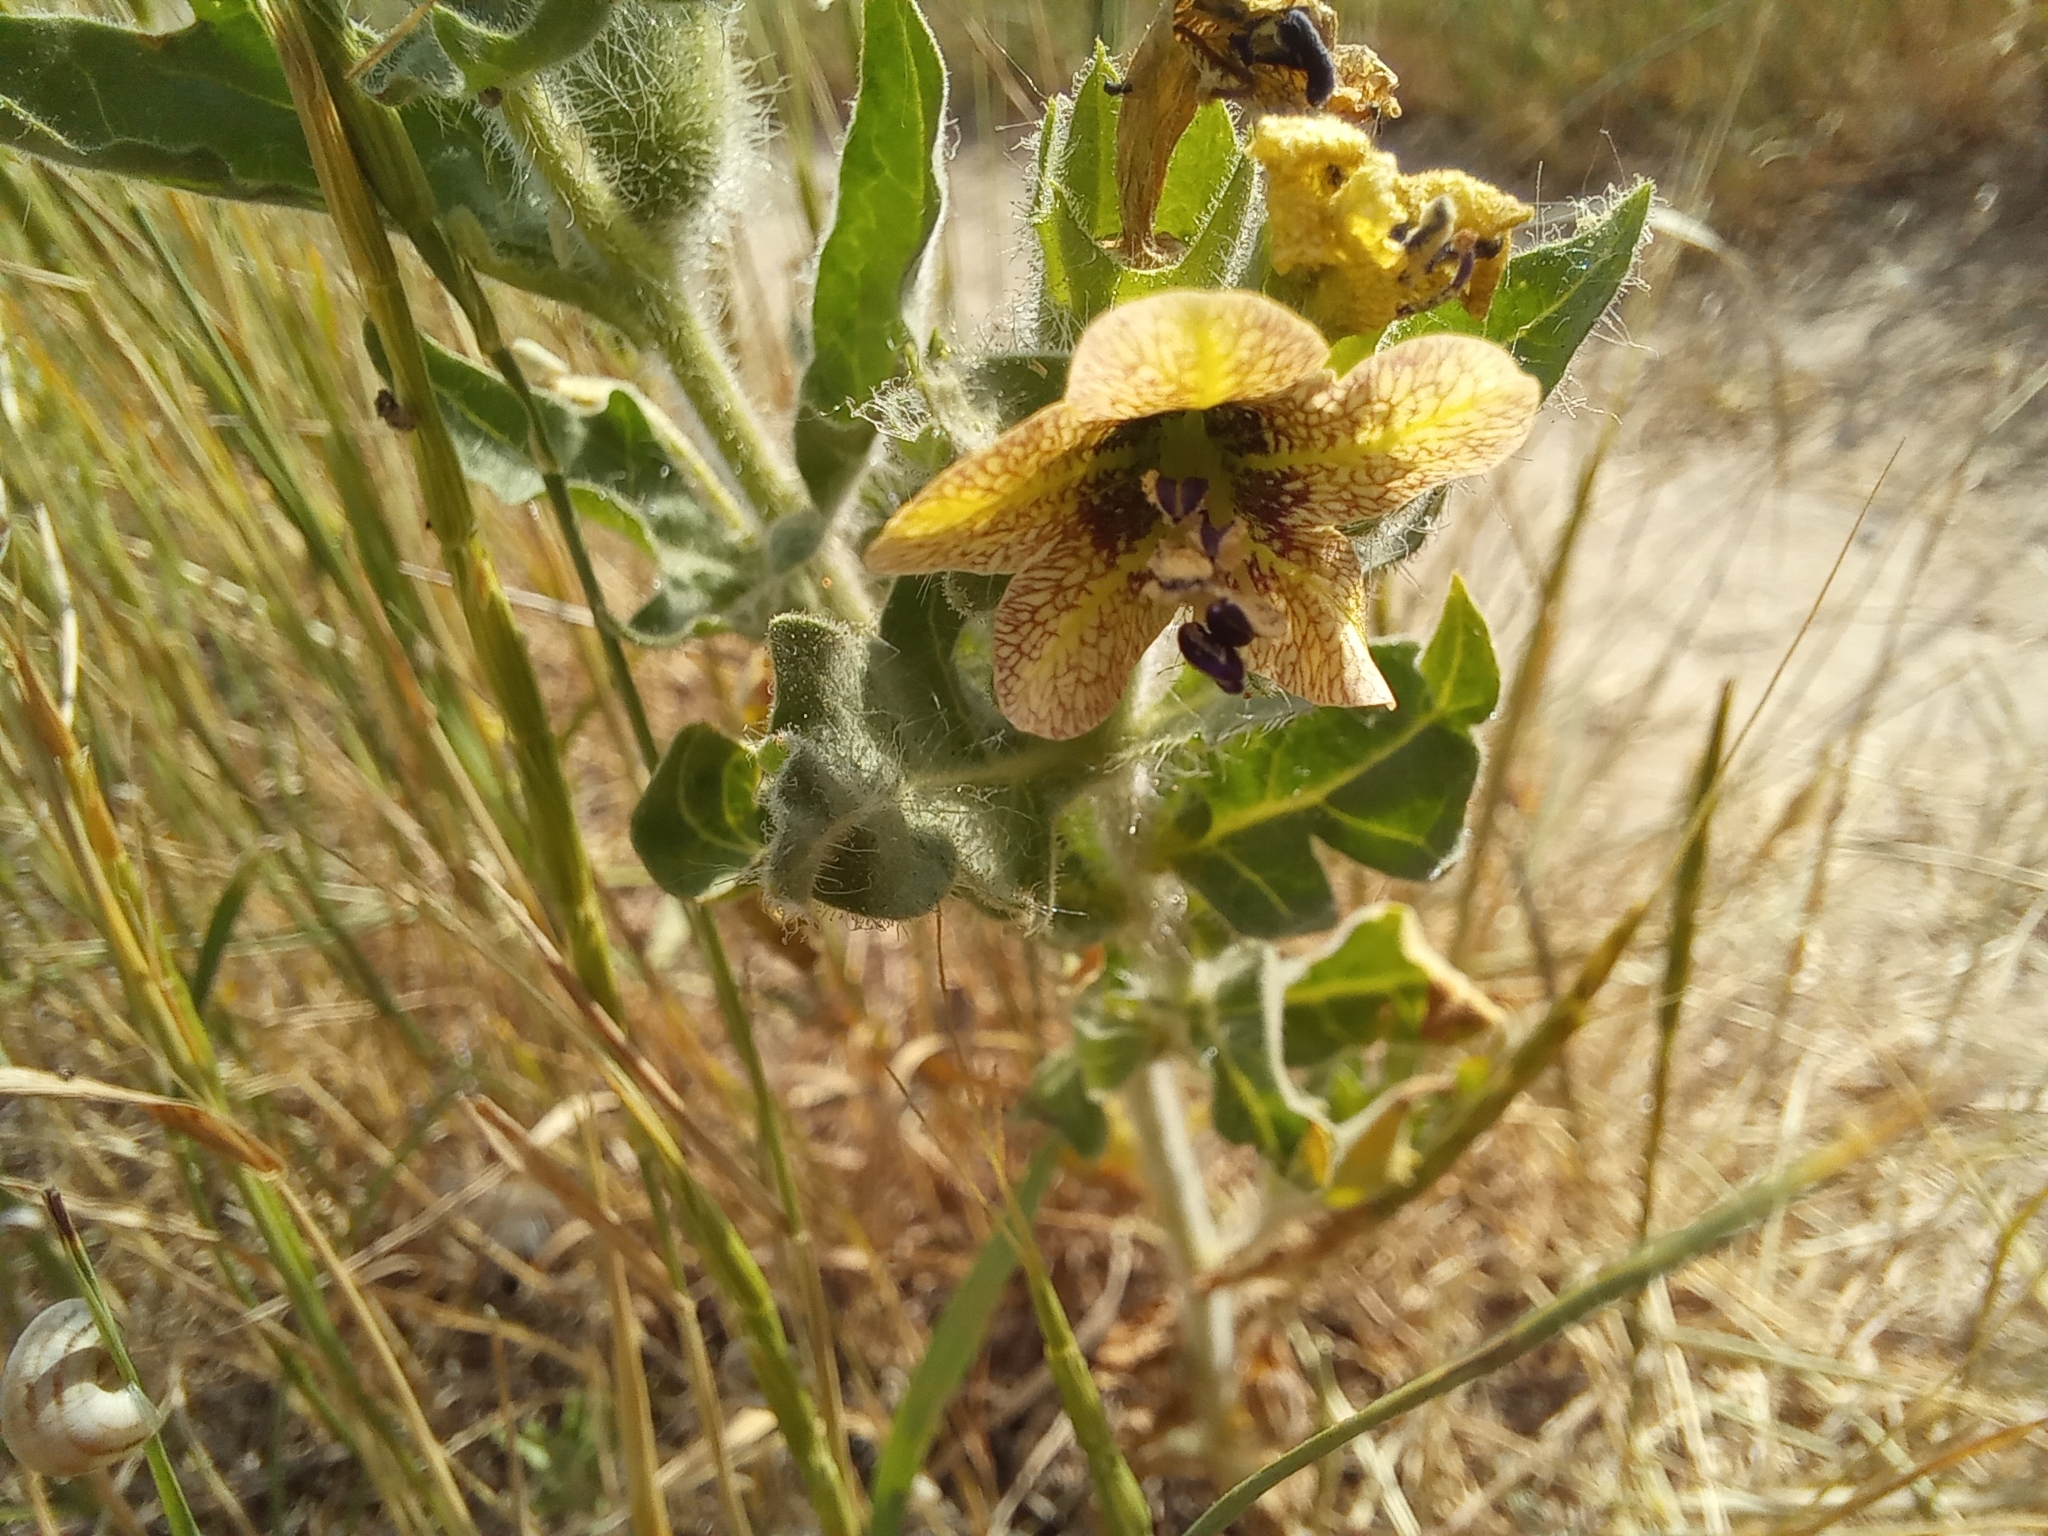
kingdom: Plantae
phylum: Tracheophyta
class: Magnoliopsida
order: Solanales
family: Solanaceae
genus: Hyoscyamus
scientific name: Hyoscyamus niger
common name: Henbane
